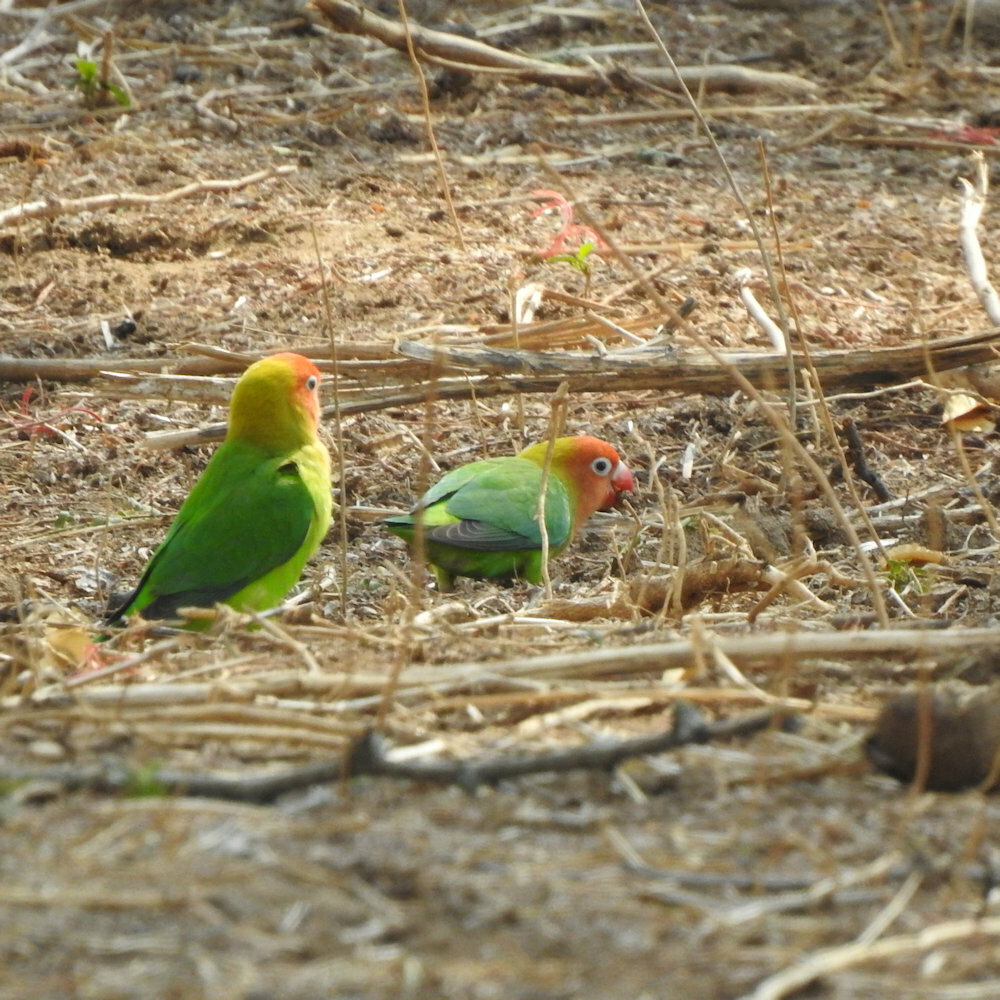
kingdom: Animalia
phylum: Chordata
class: Aves
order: Psittaciformes
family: Psittacidae
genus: Agapornis
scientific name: Agapornis lilianae
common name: Lilian's lovebird
